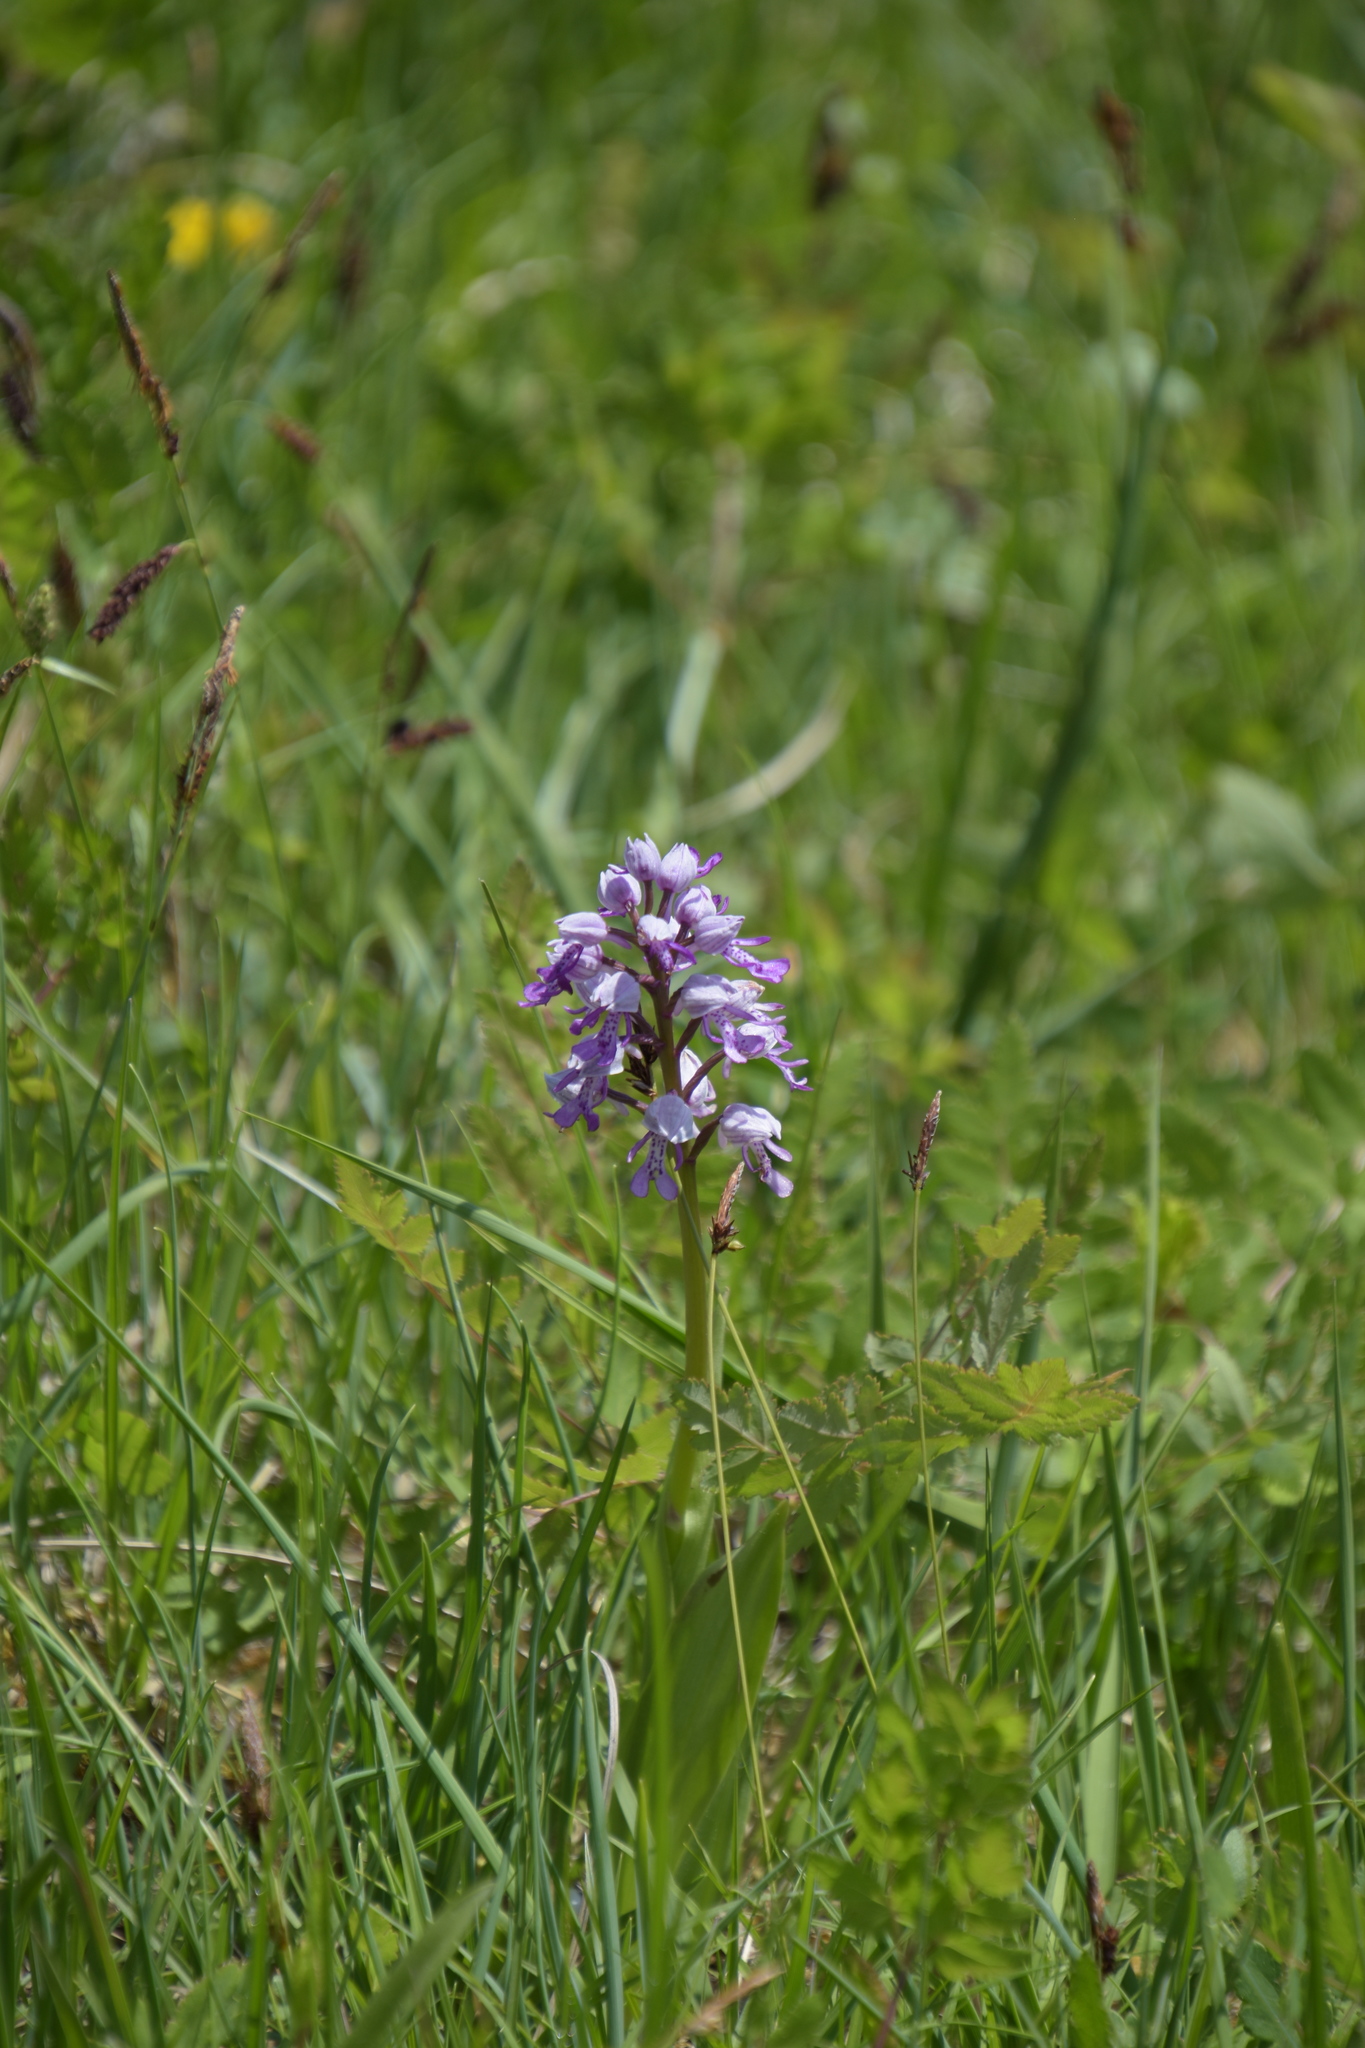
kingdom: Plantae
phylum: Tracheophyta
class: Liliopsida
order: Asparagales
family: Orchidaceae
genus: Orchis
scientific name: Orchis militaris
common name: Military orchid
